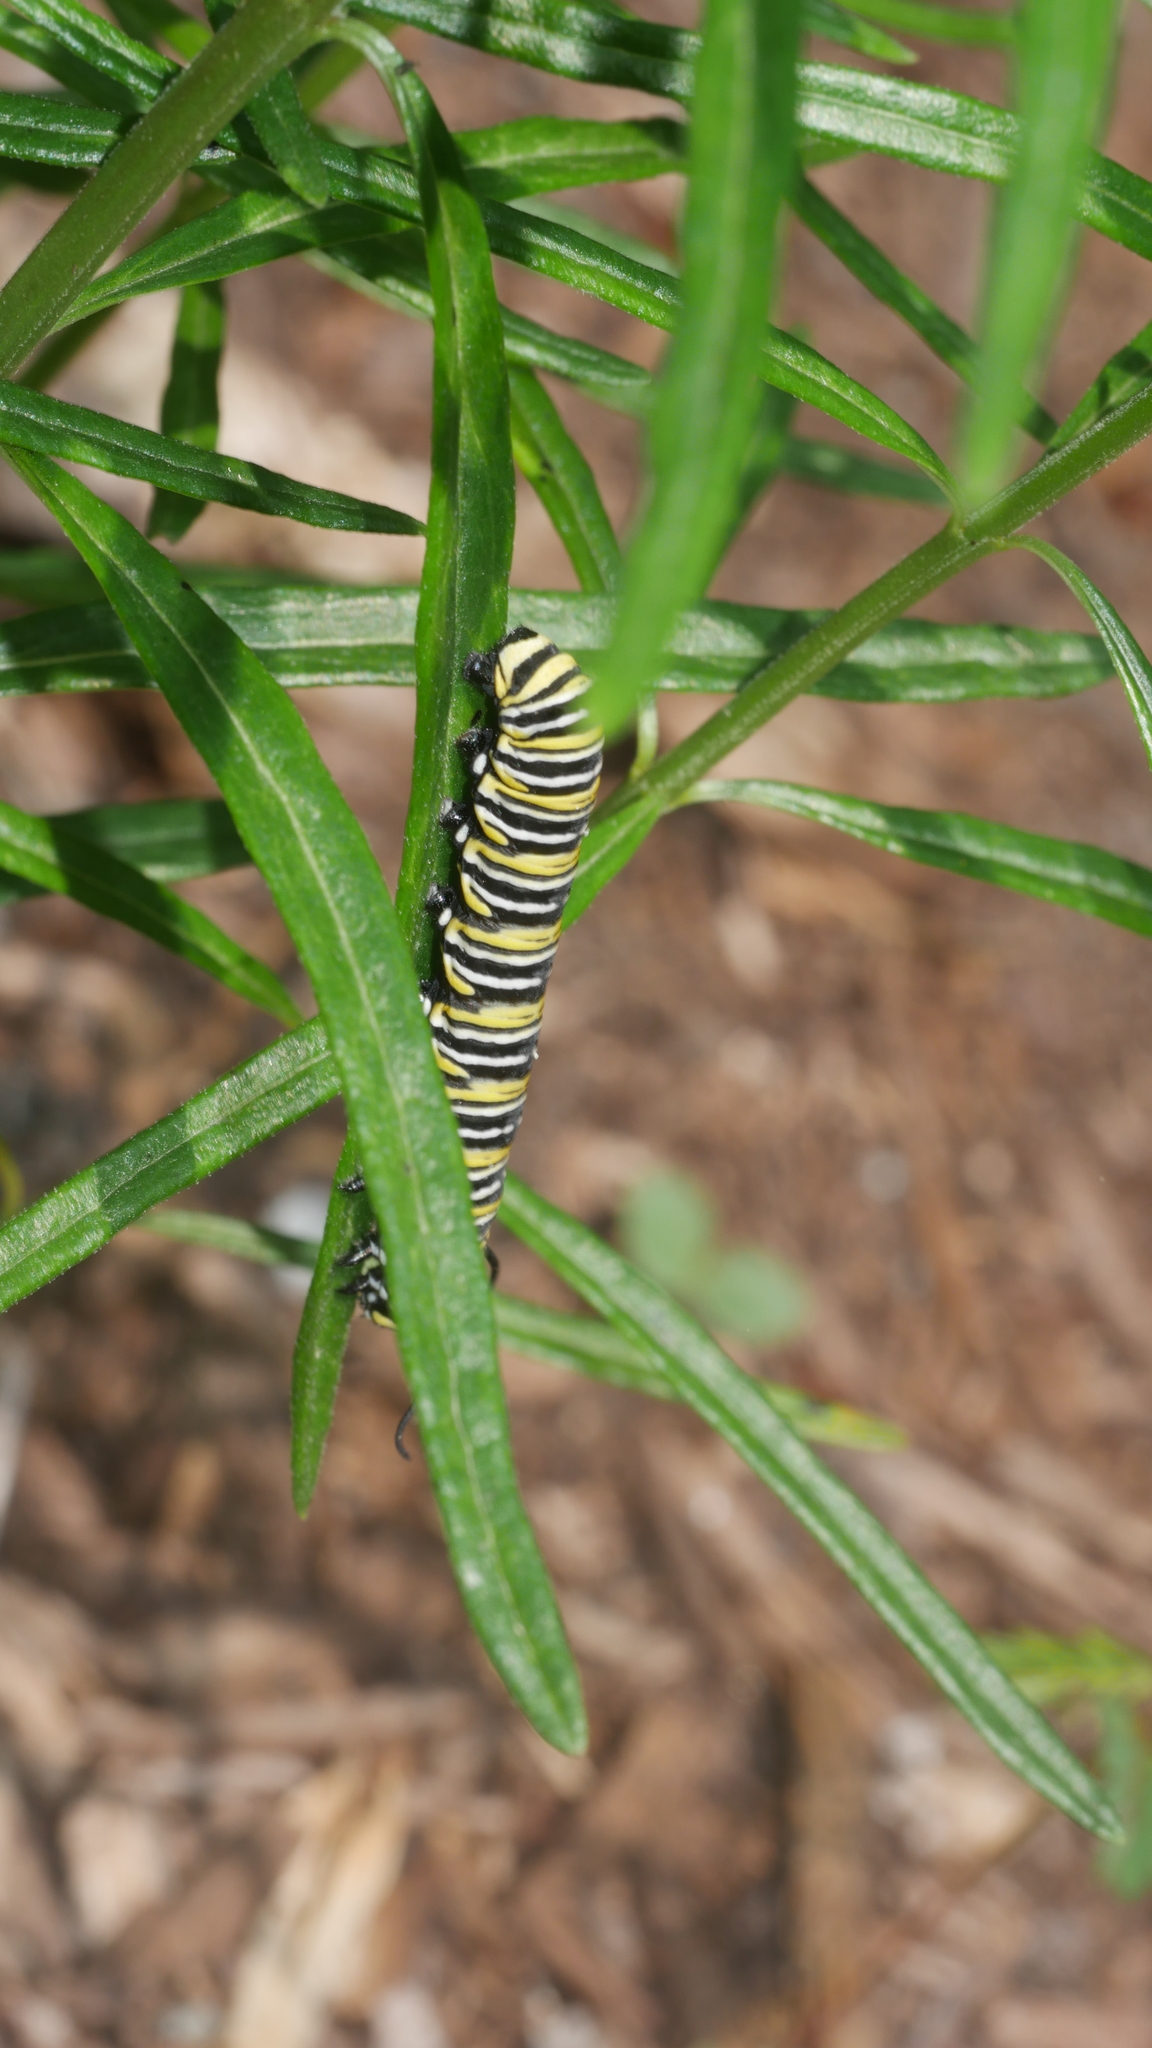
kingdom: Animalia
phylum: Arthropoda
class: Insecta
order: Lepidoptera
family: Nymphalidae
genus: Danaus
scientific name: Danaus plexippus
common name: Monarch
